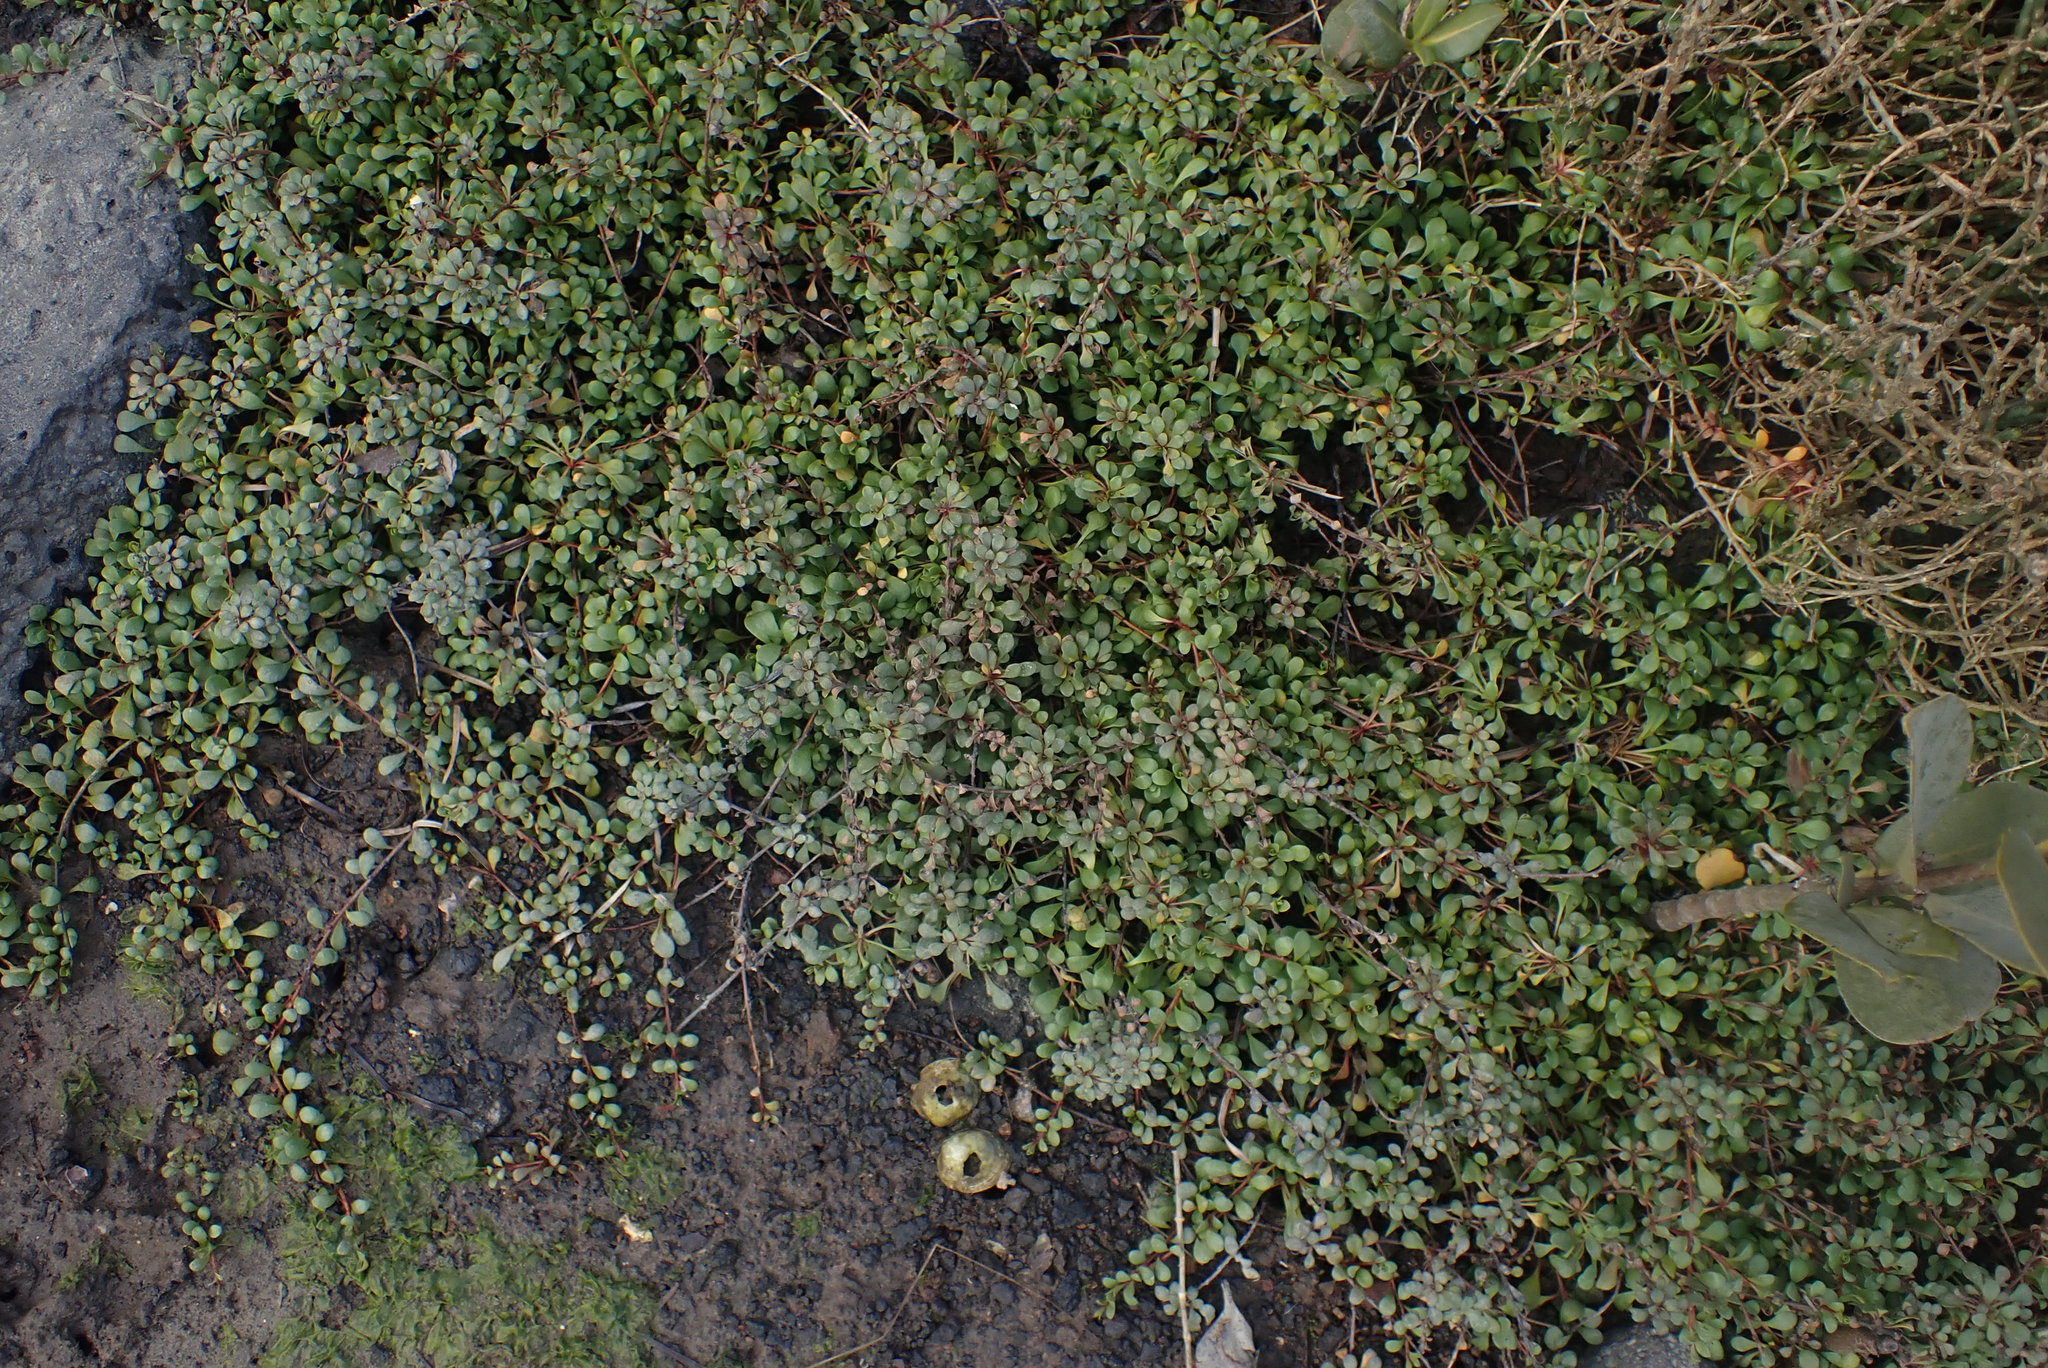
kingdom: Plantae
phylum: Tracheophyta
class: Magnoliopsida
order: Ericales
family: Primulaceae
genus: Samolus
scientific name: Samolus repens
